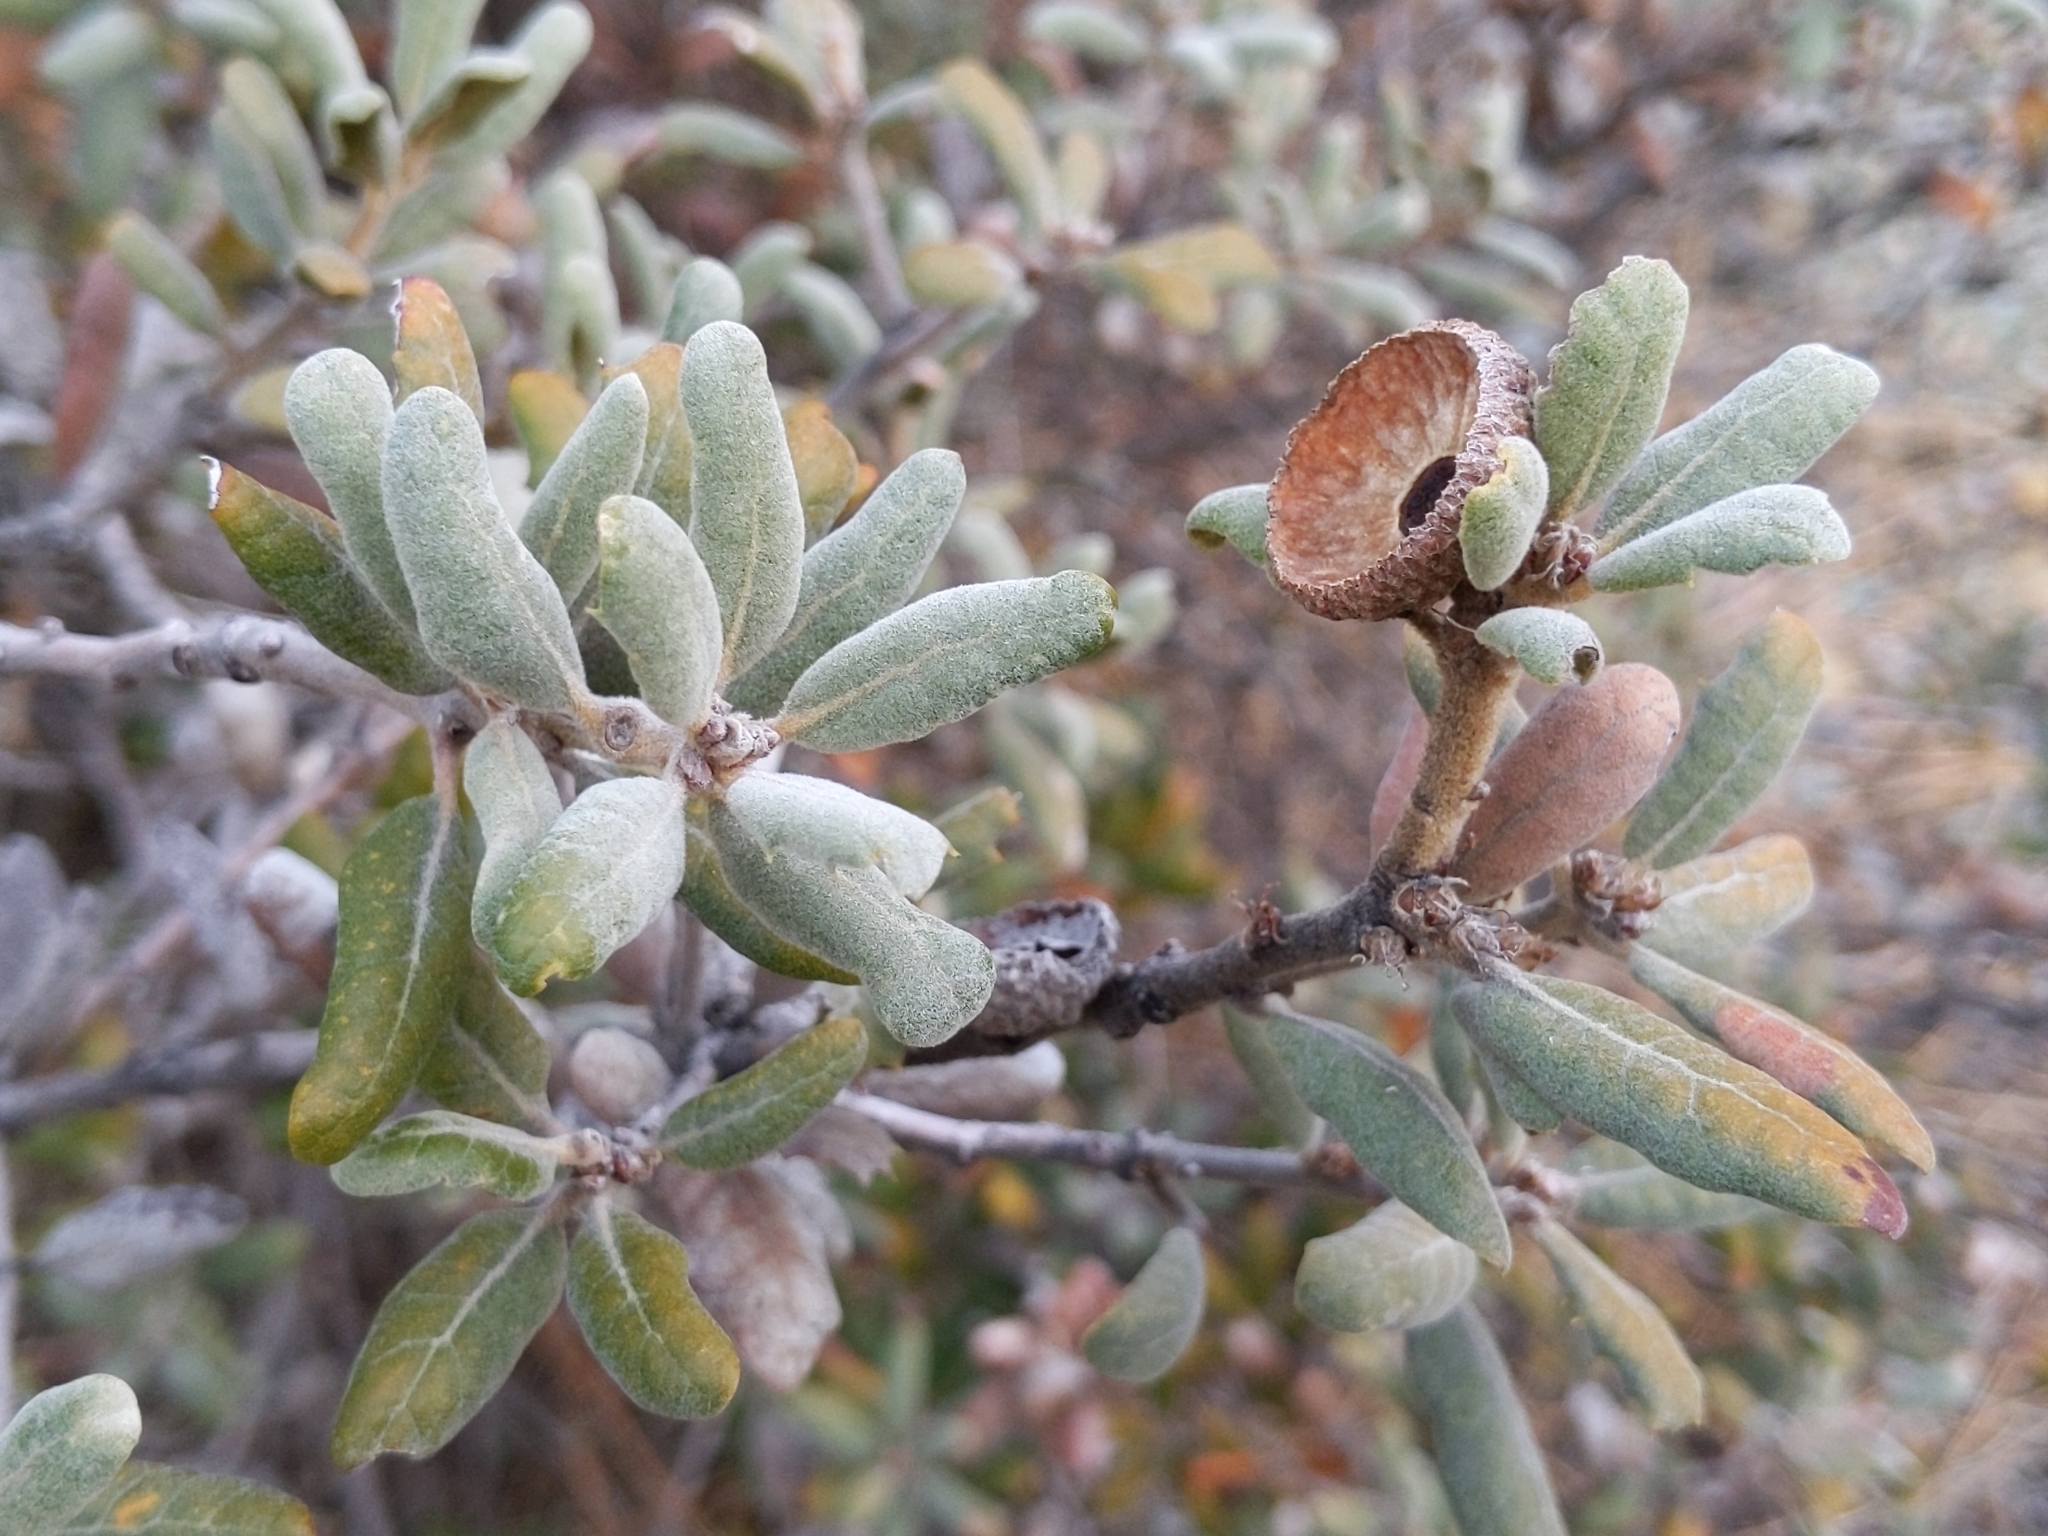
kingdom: Plantae
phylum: Tracheophyta
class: Magnoliopsida
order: Fagales
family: Fagaceae
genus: Quercus
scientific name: Quercus durata
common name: Leather oak
